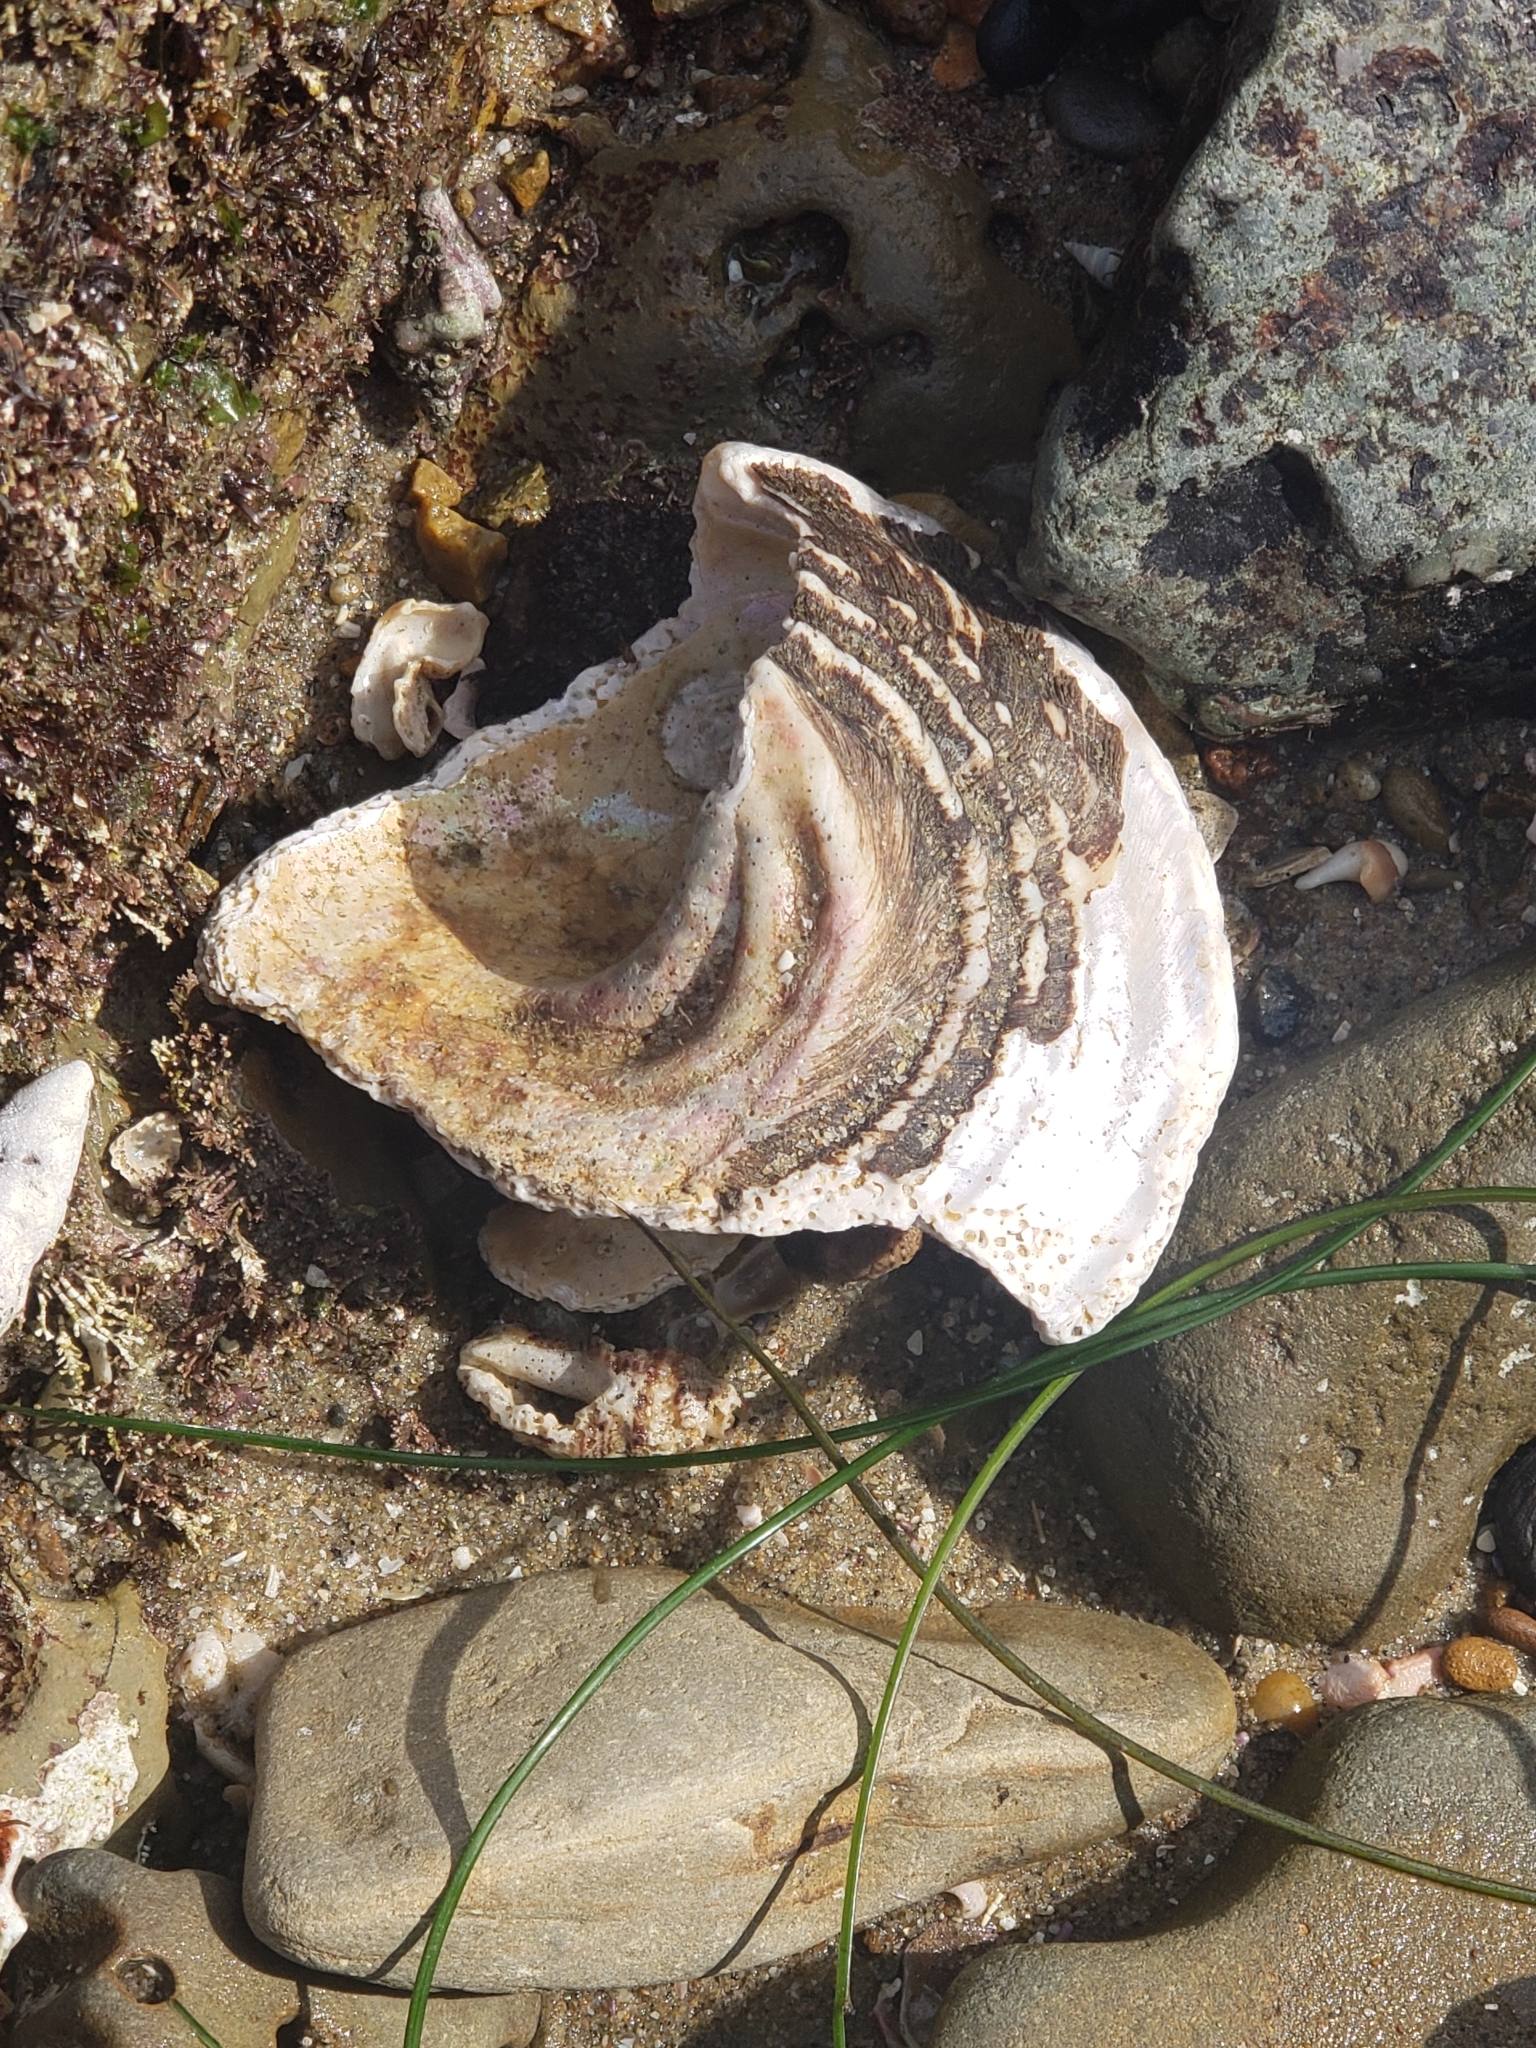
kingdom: Animalia
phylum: Mollusca
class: Gastropoda
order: Trochida
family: Turbinidae
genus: Megastraea
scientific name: Megastraea undosa
